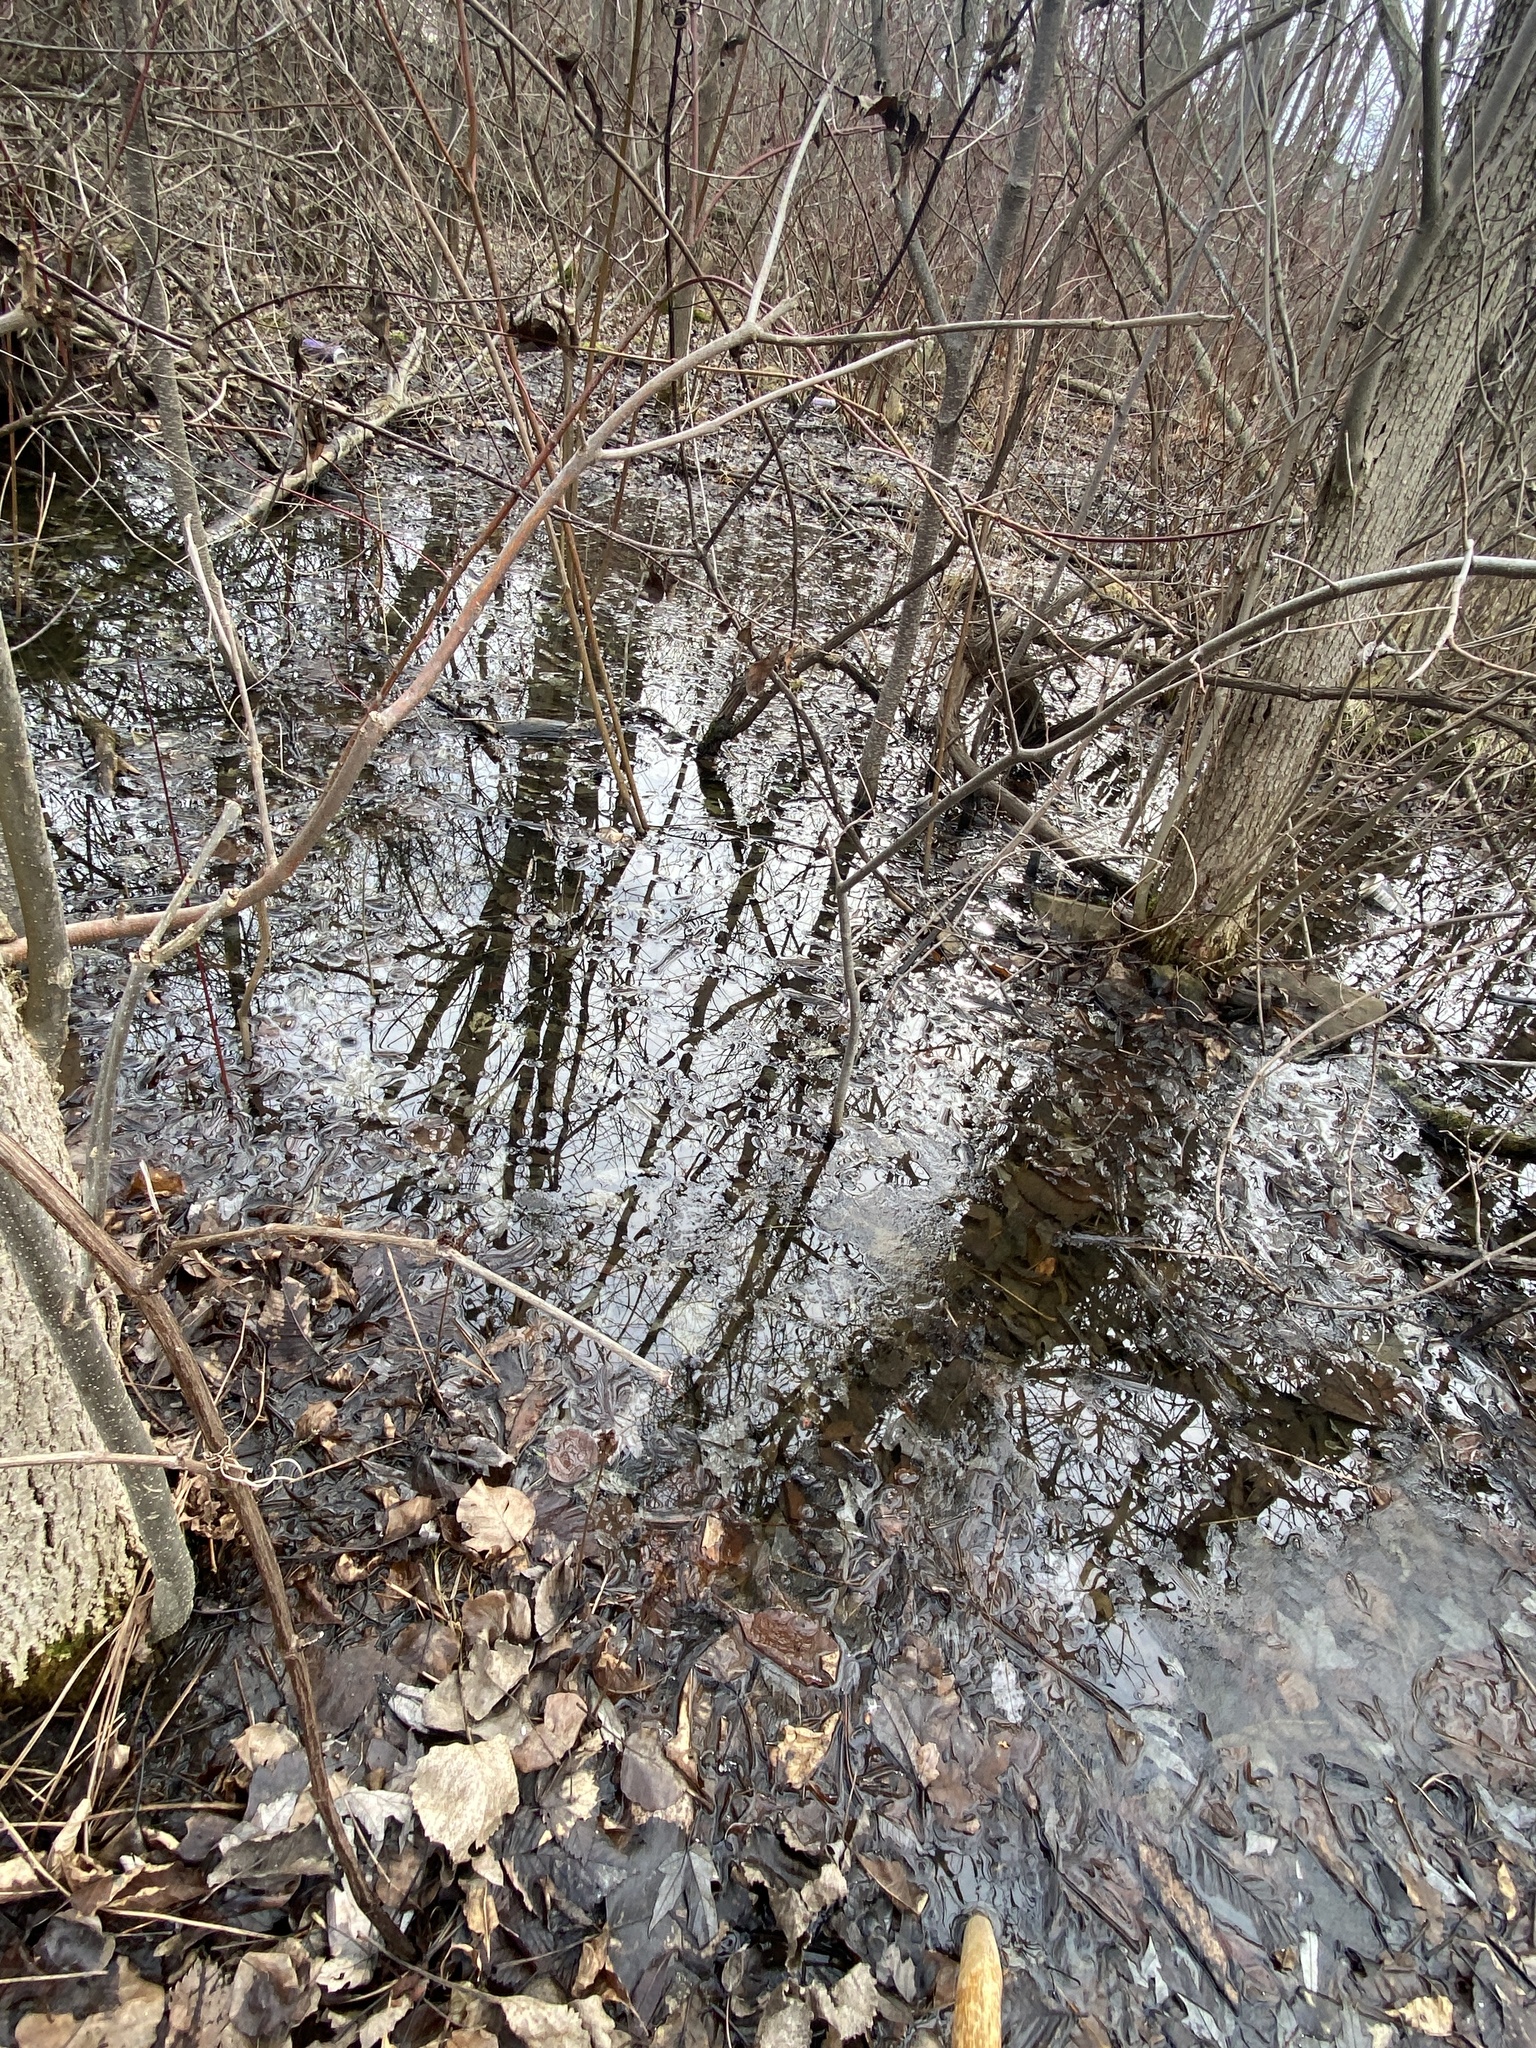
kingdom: Plantae
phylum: Tracheophyta
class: Polypodiopsida
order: Polypodiales
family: Onocleaceae
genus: Onoclea
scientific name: Onoclea sensibilis
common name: Sensitive fern
